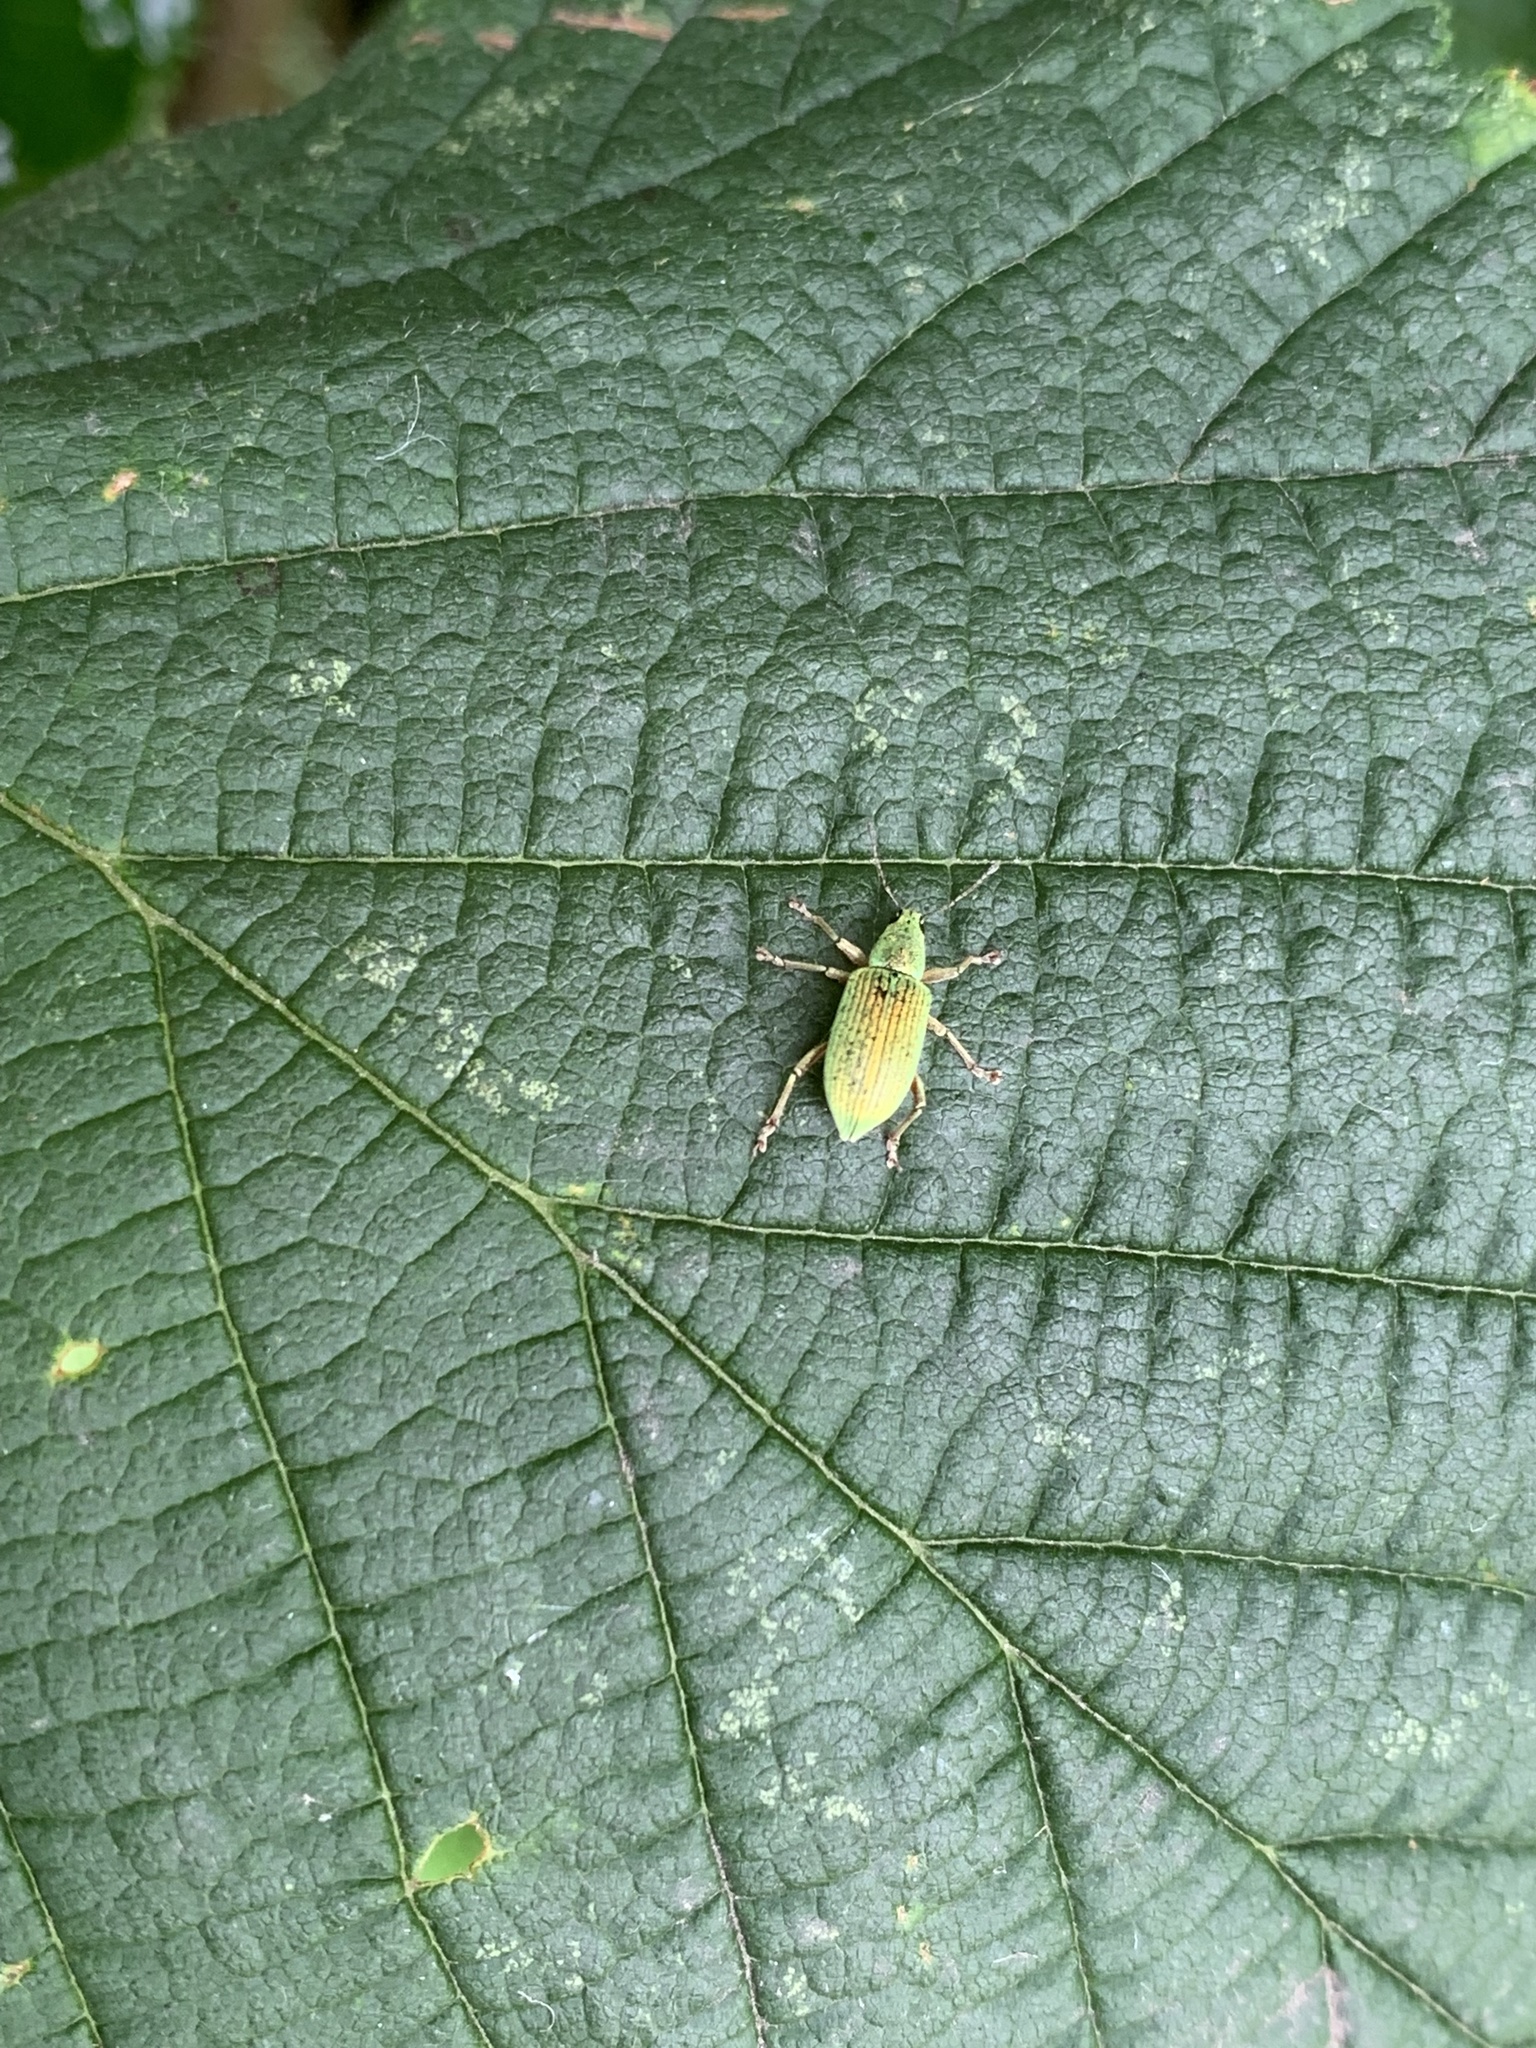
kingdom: Animalia
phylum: Arthropoda
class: Insecta
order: Coleoptera
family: Curculionidae
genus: Polydrusus
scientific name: Polydrusus formosus
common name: Weevil
